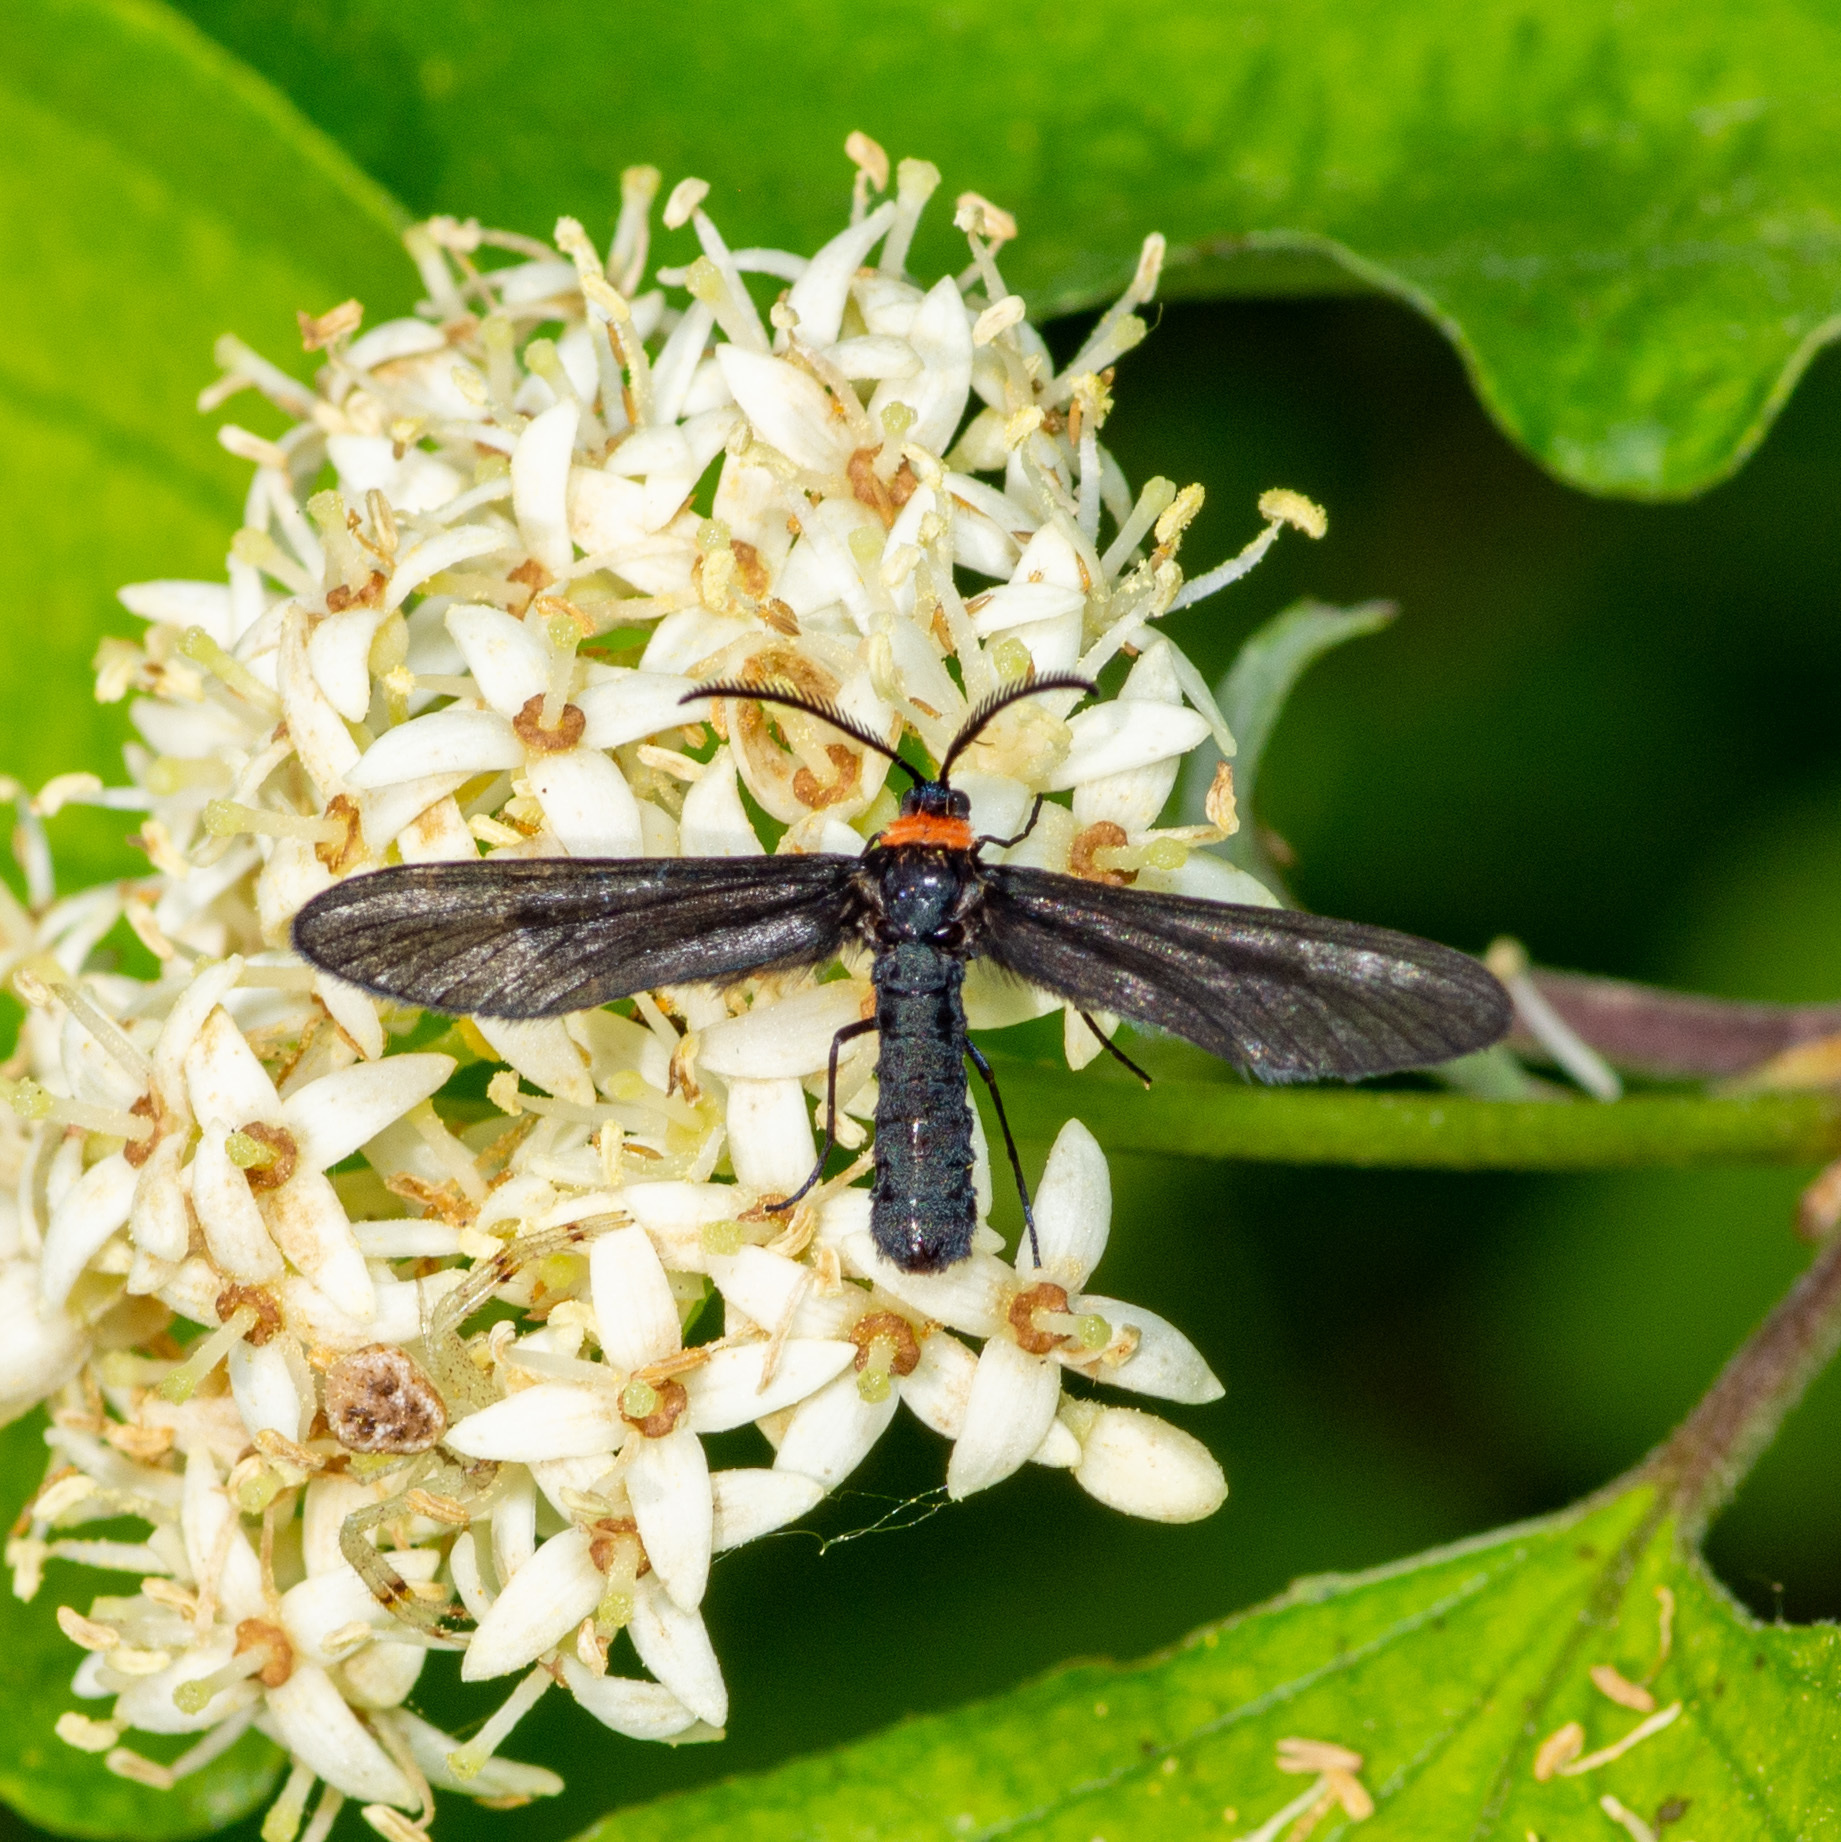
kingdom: Animalia
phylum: Arthropoda
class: Insecta
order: Lepidoptera
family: Zygaenidae
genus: Harrisina
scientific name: Harrisina americana
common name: Grapeleaf skeletonizer moth
